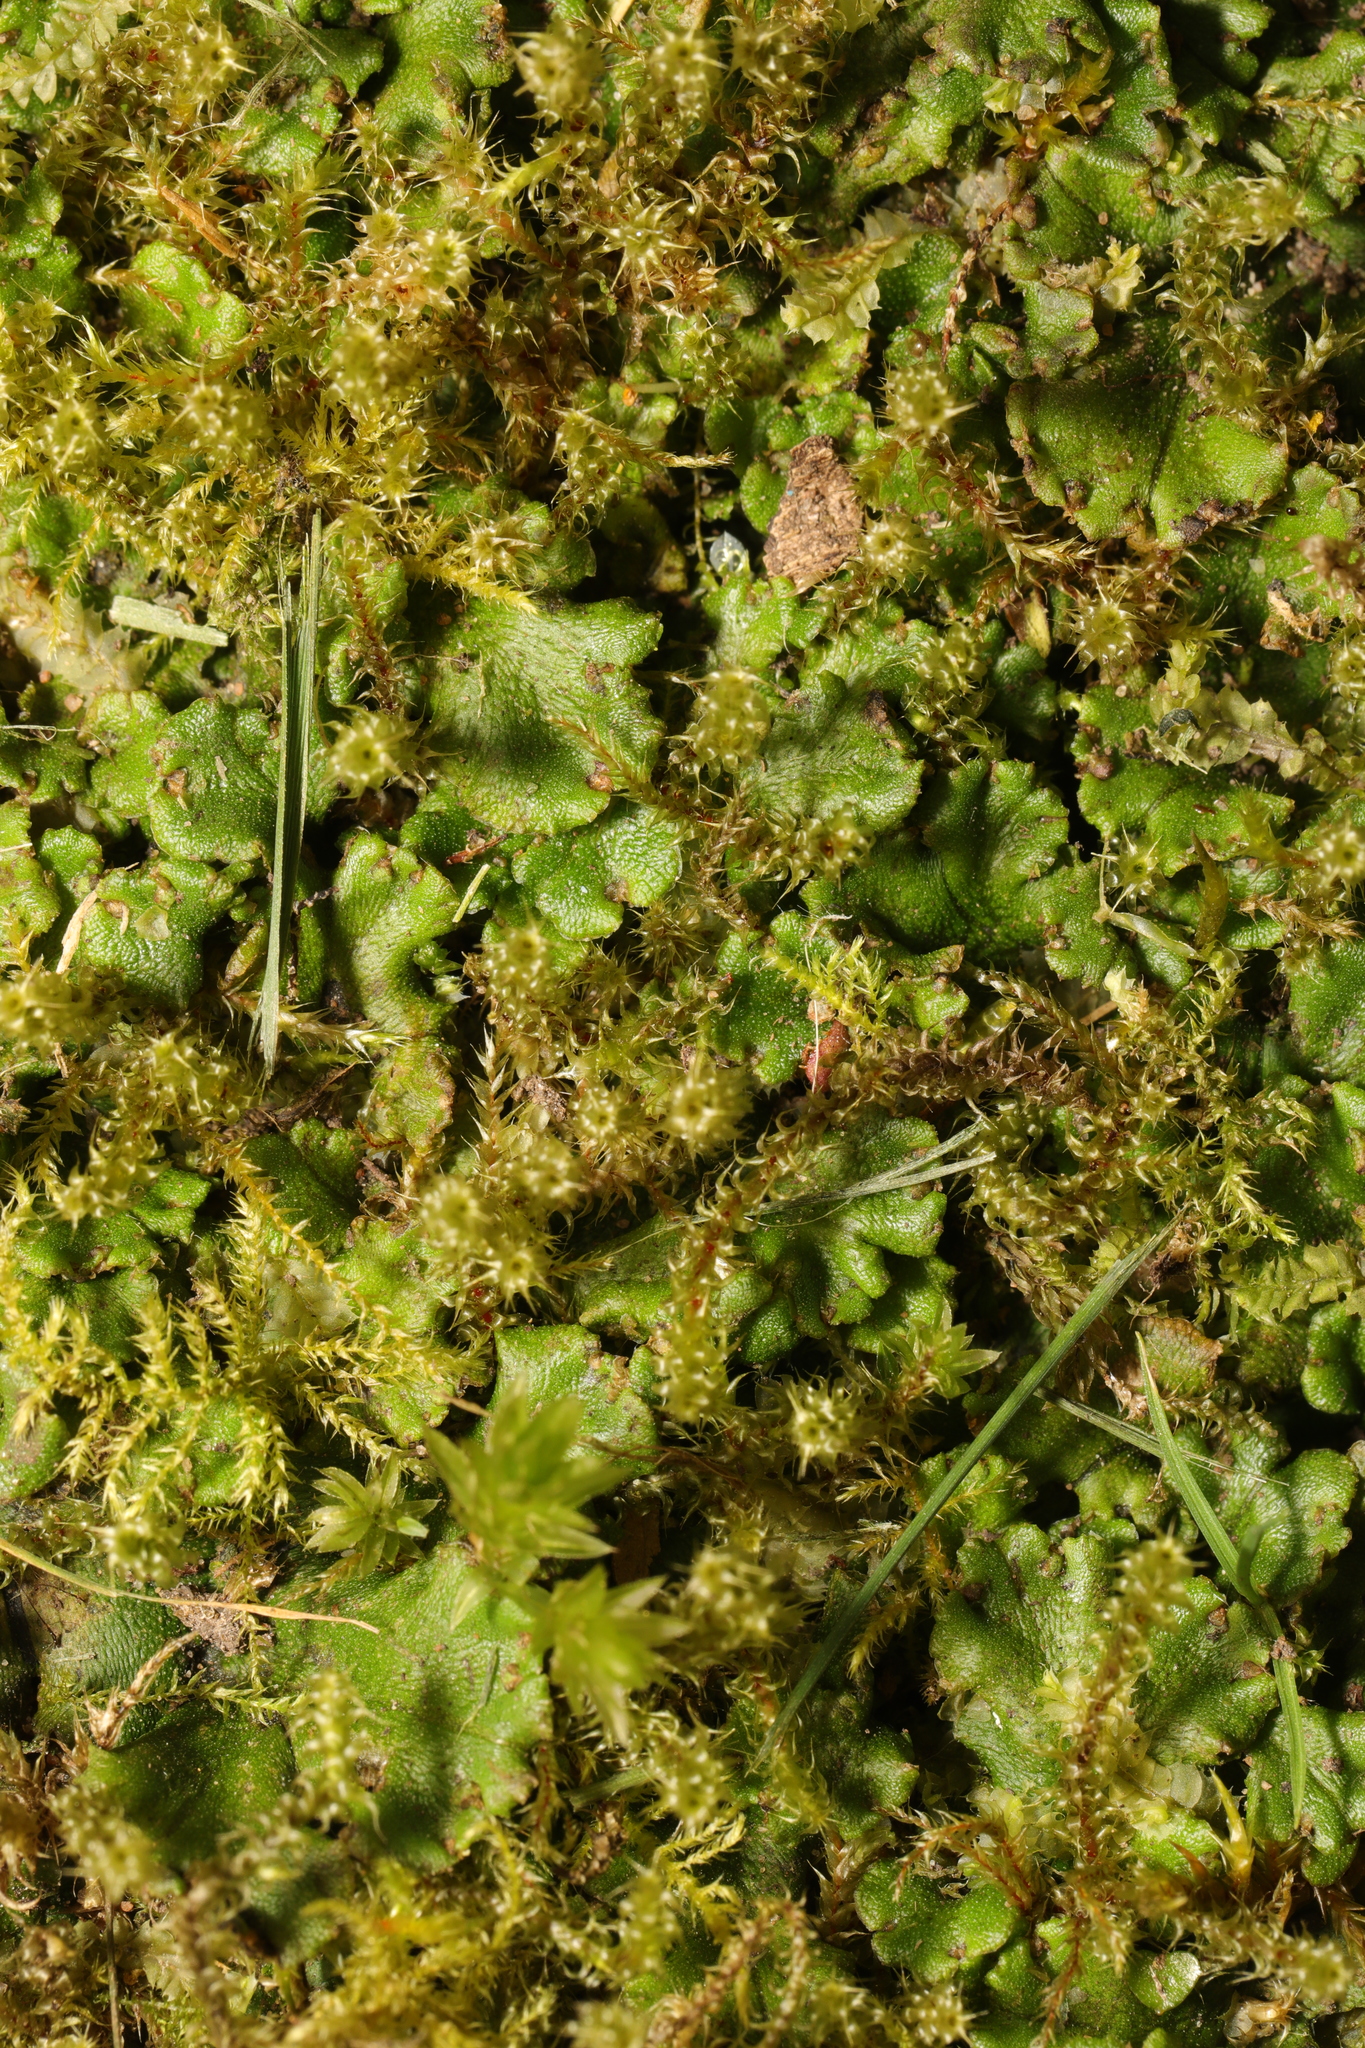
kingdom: Plantae
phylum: Bryophyta
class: Bryopsida
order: Hypnales
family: Hylocomiaceae
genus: Rhytidiadelphus
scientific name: Rhytidiadelphus squarrosus
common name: Springy turf-moss
